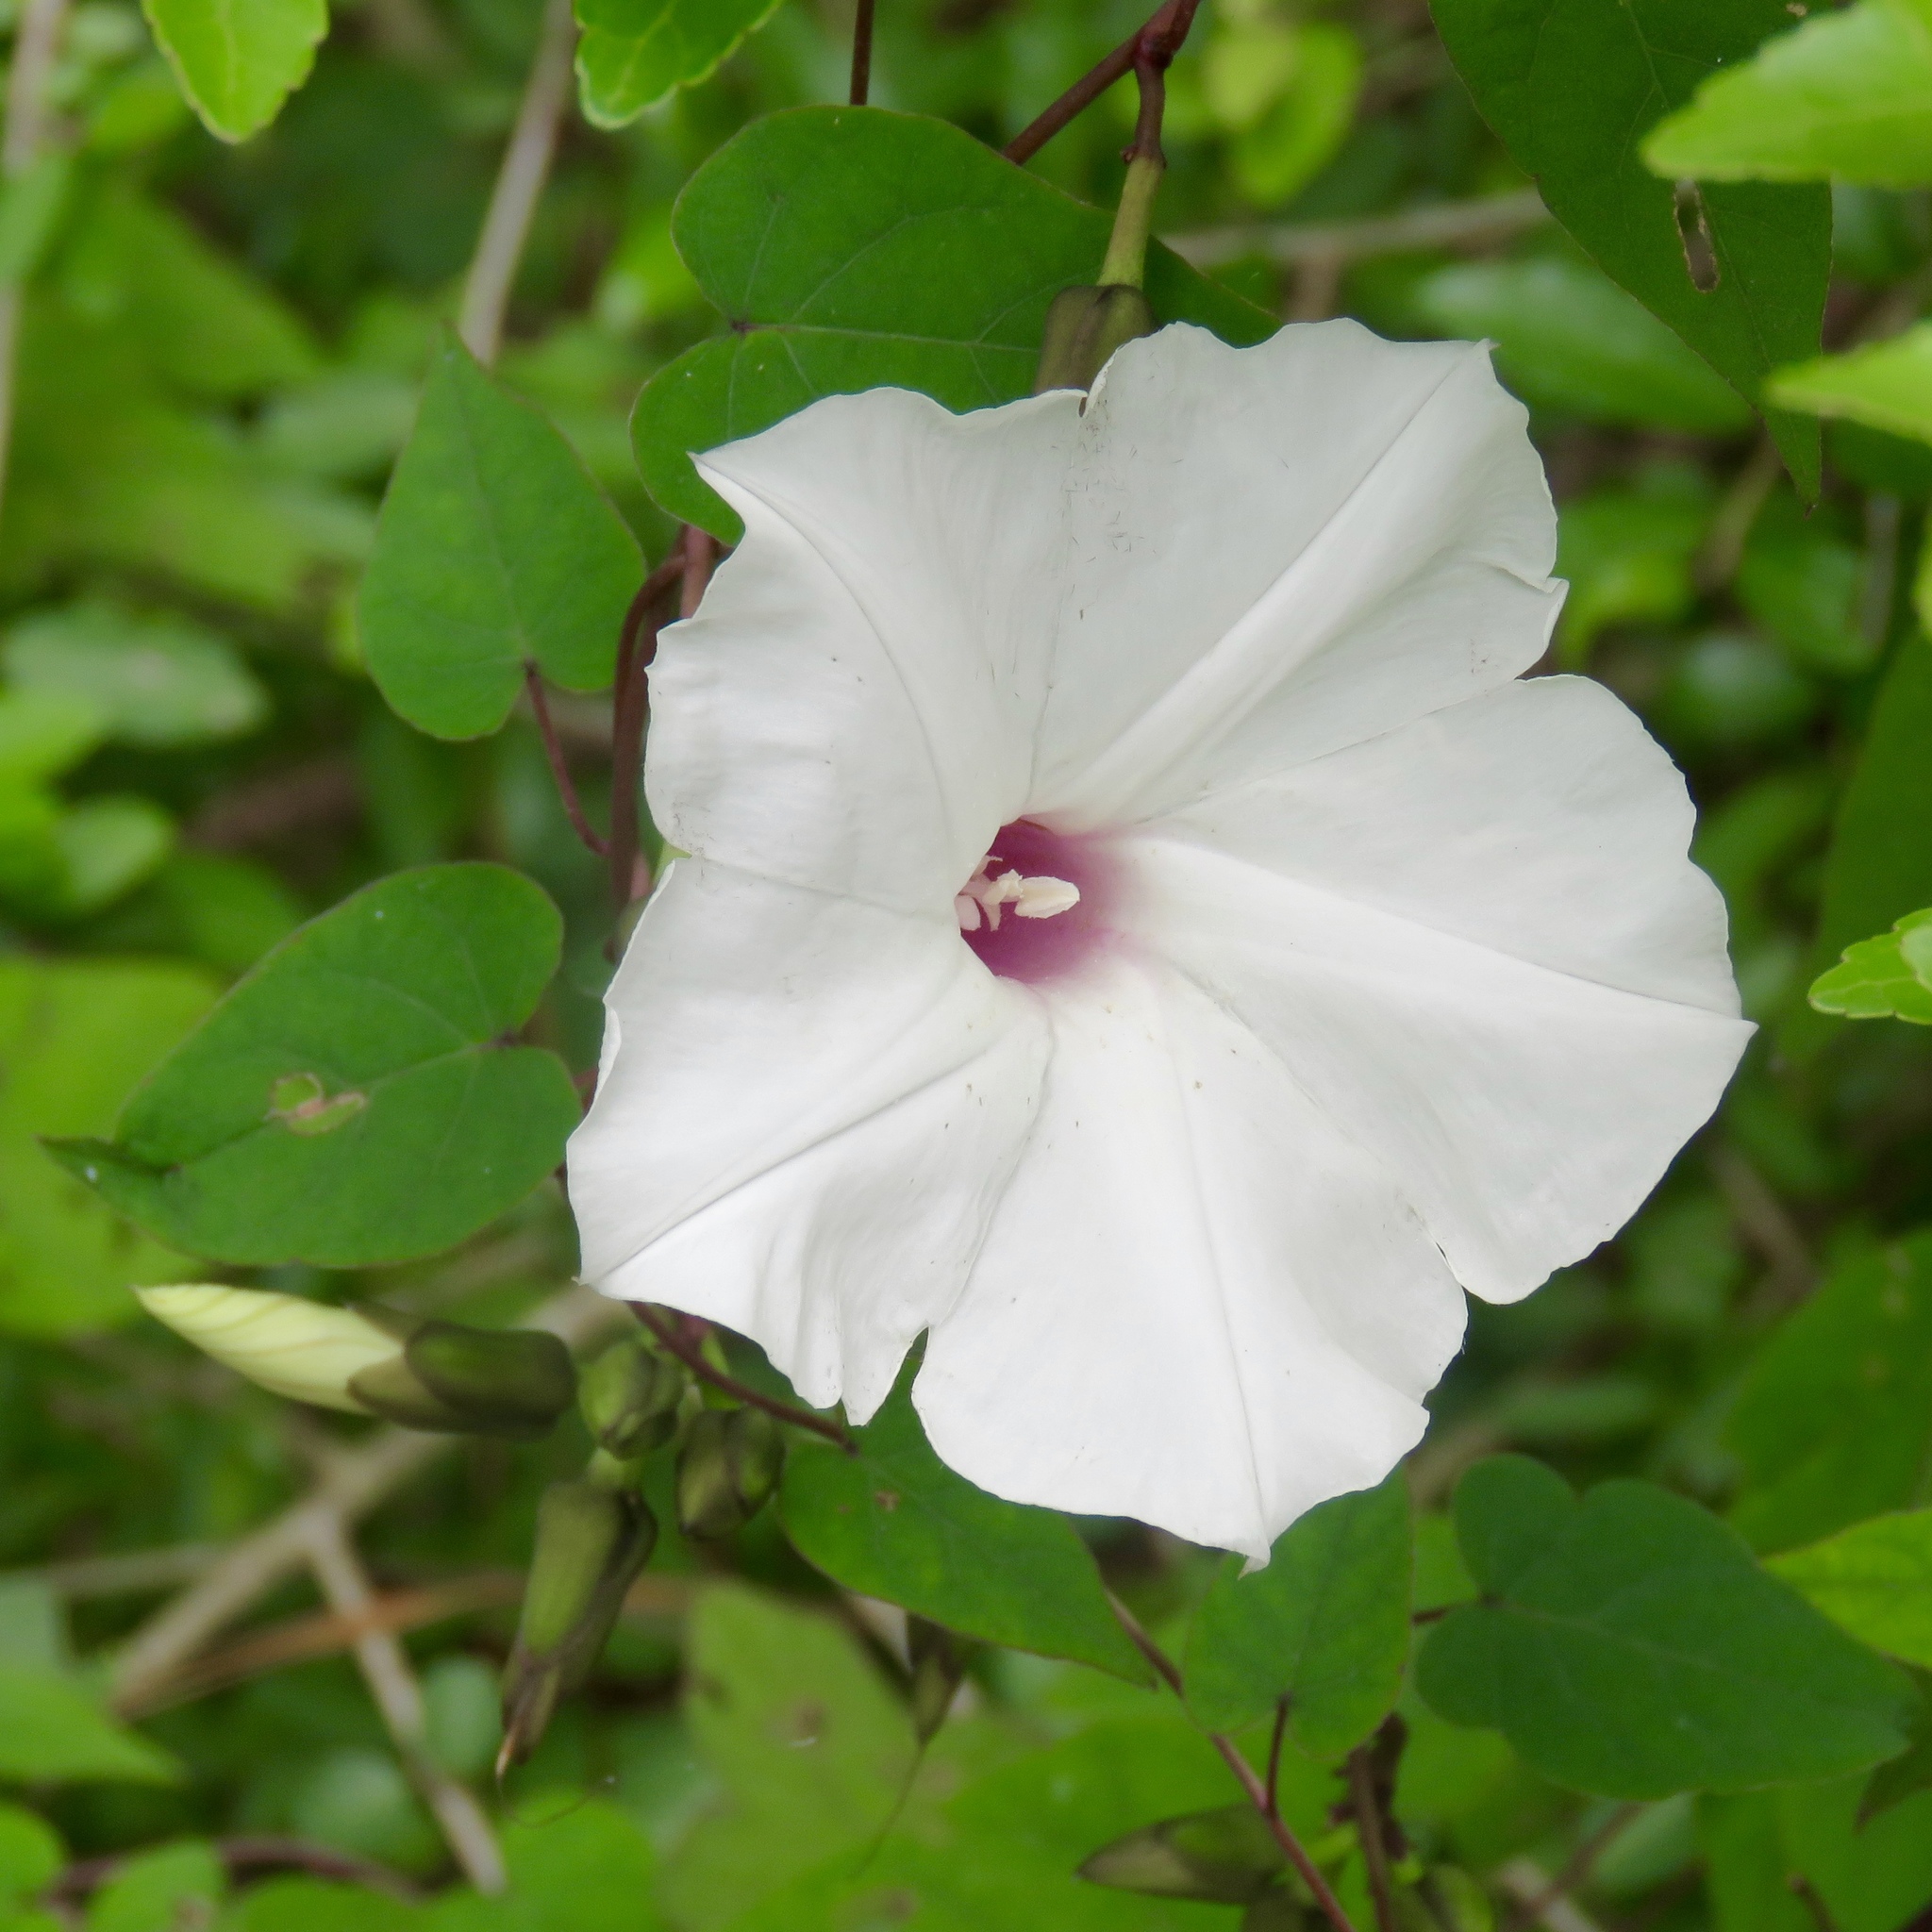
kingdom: Plantae
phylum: Tracheophyta
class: Magnoliopsida
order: Solanales
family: Convolvulaceae
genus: Ipomoea
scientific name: Ipomoea pandurata
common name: Man-of-the-earth
